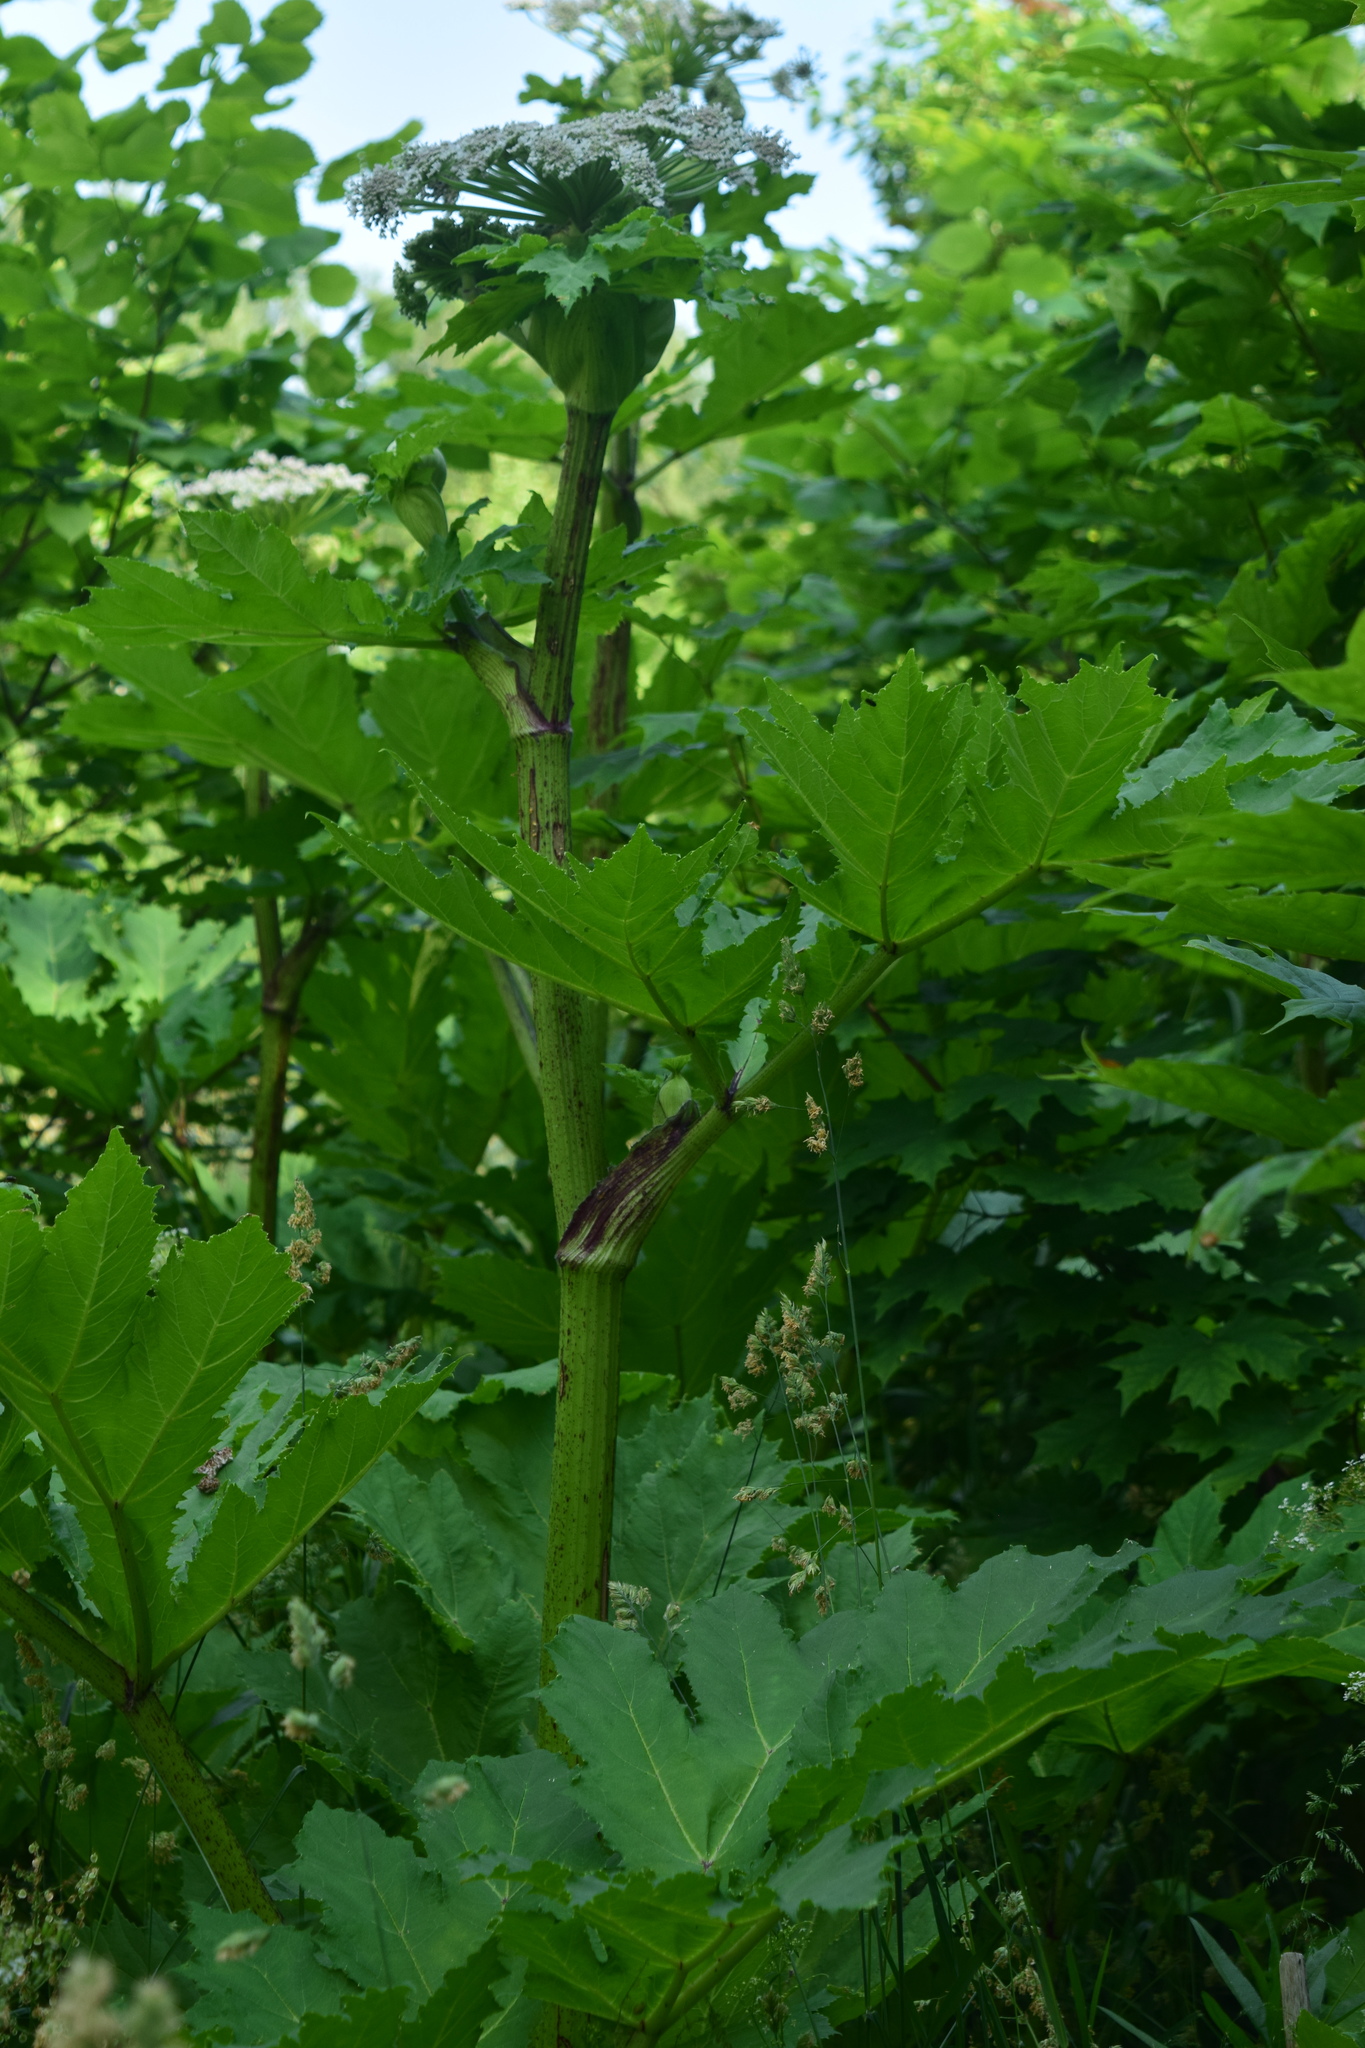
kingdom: Plantae
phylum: Tracheophyta
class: Magnoliopsida
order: Apiales
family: Apiaceae
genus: Heracleum
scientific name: Heracleum sosnowskyi
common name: Sosnowsky's hogweed
